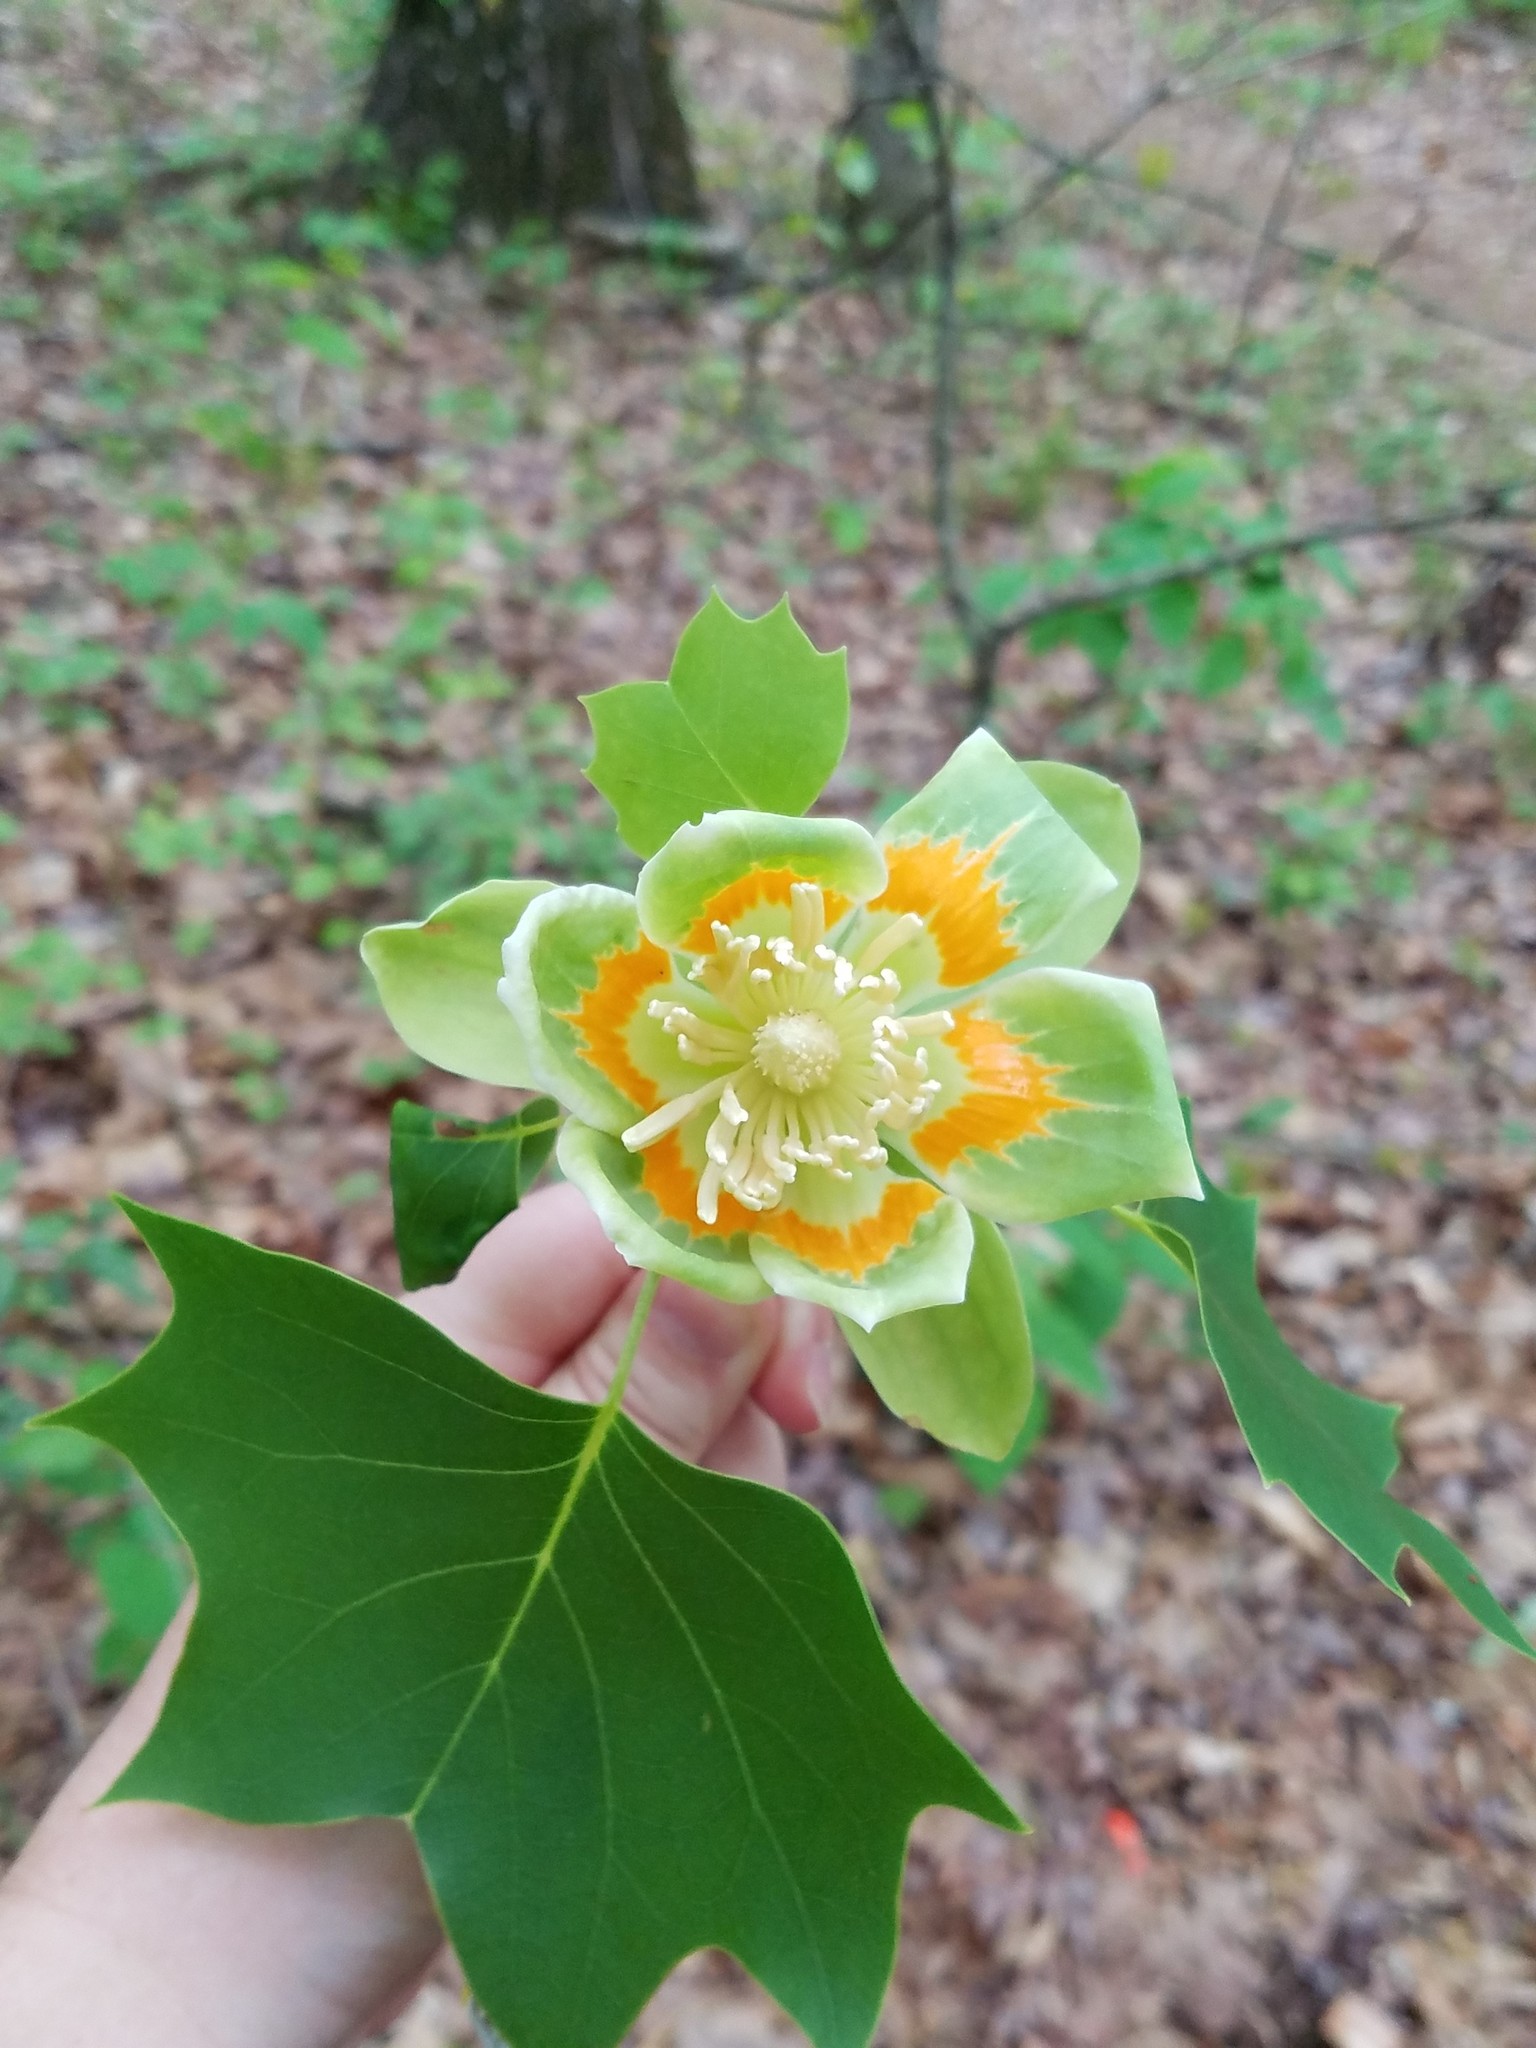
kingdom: Plantae
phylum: Tracheophyta
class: Magnoliopsida
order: Magnoliales
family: Magnoliaceae
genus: Liriodendron
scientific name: Liriodendron tulipifera
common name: Tulip tree
